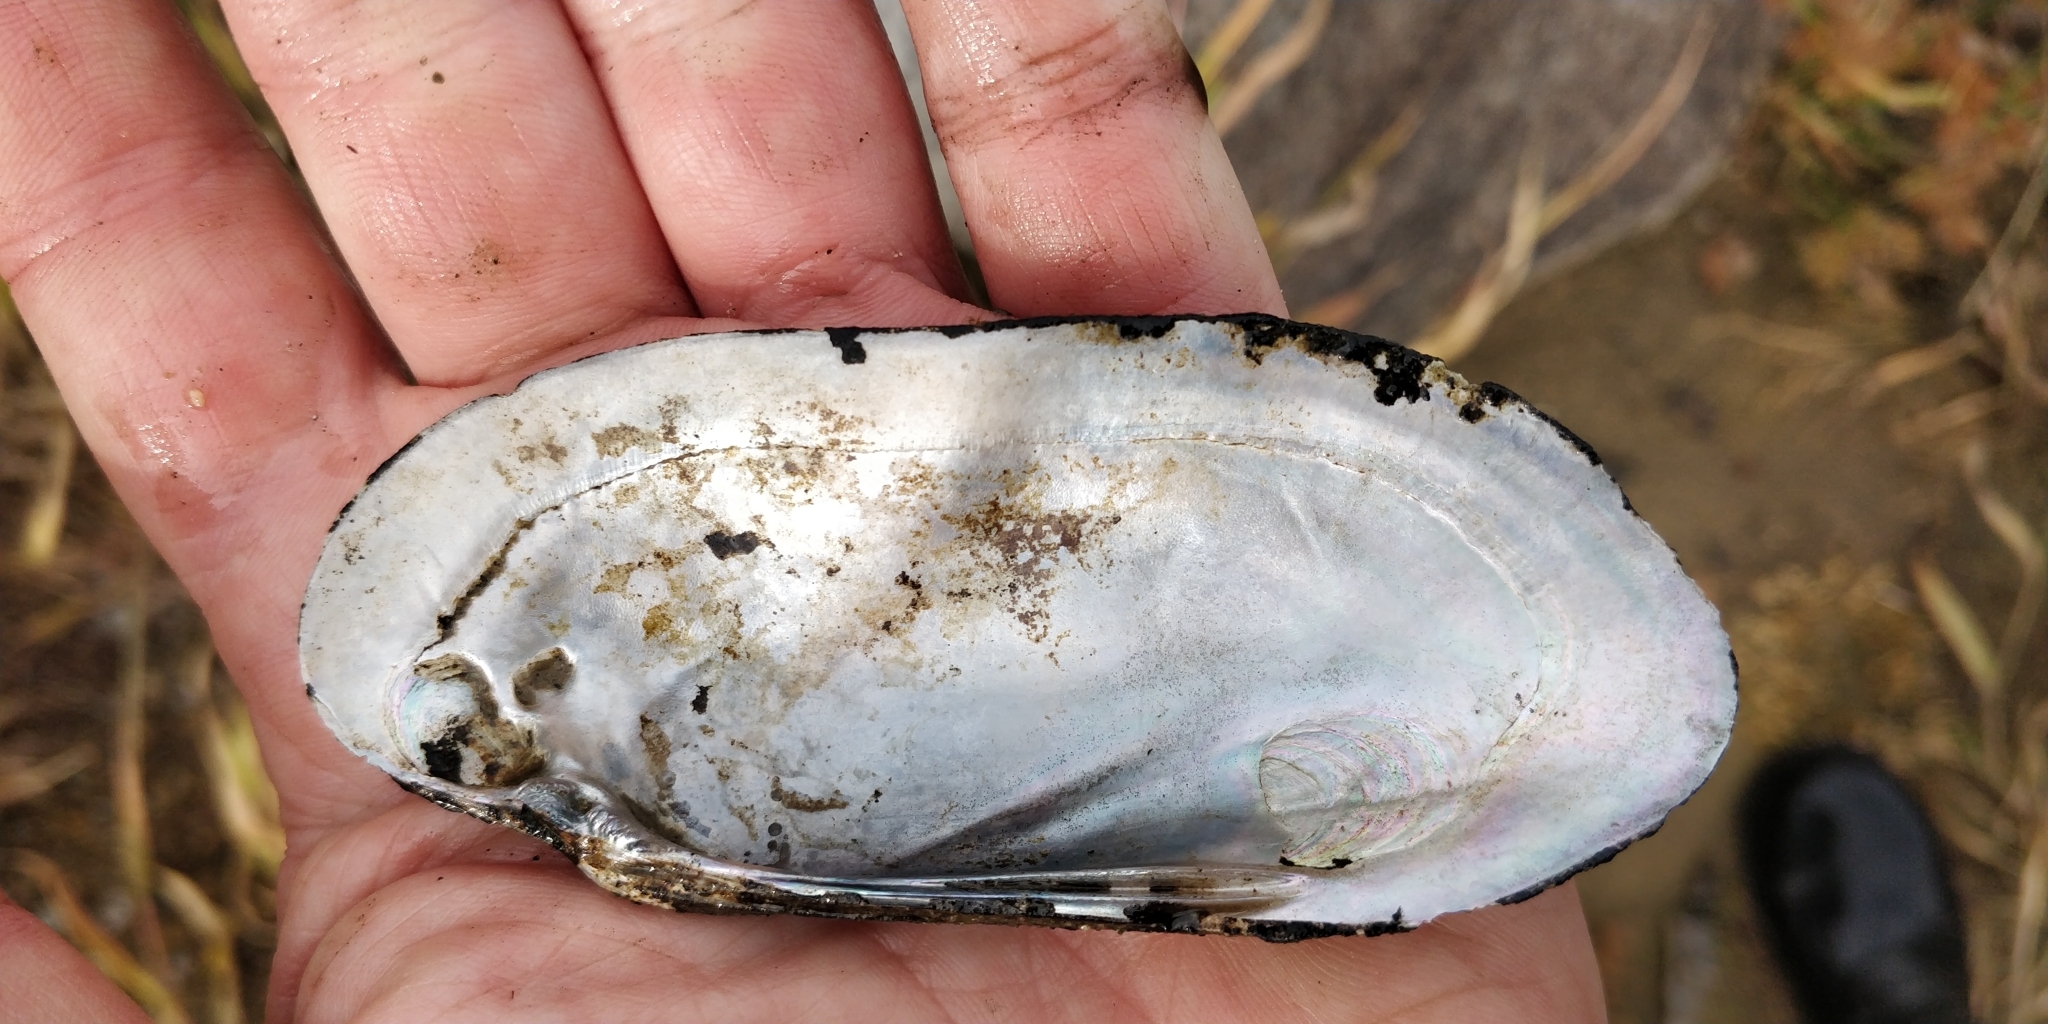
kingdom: Animalia
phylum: Mollusca
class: Bivalvia
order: Unionida
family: Unionidae
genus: Ligumia
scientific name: Ligumia recta
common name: Black sandshell
